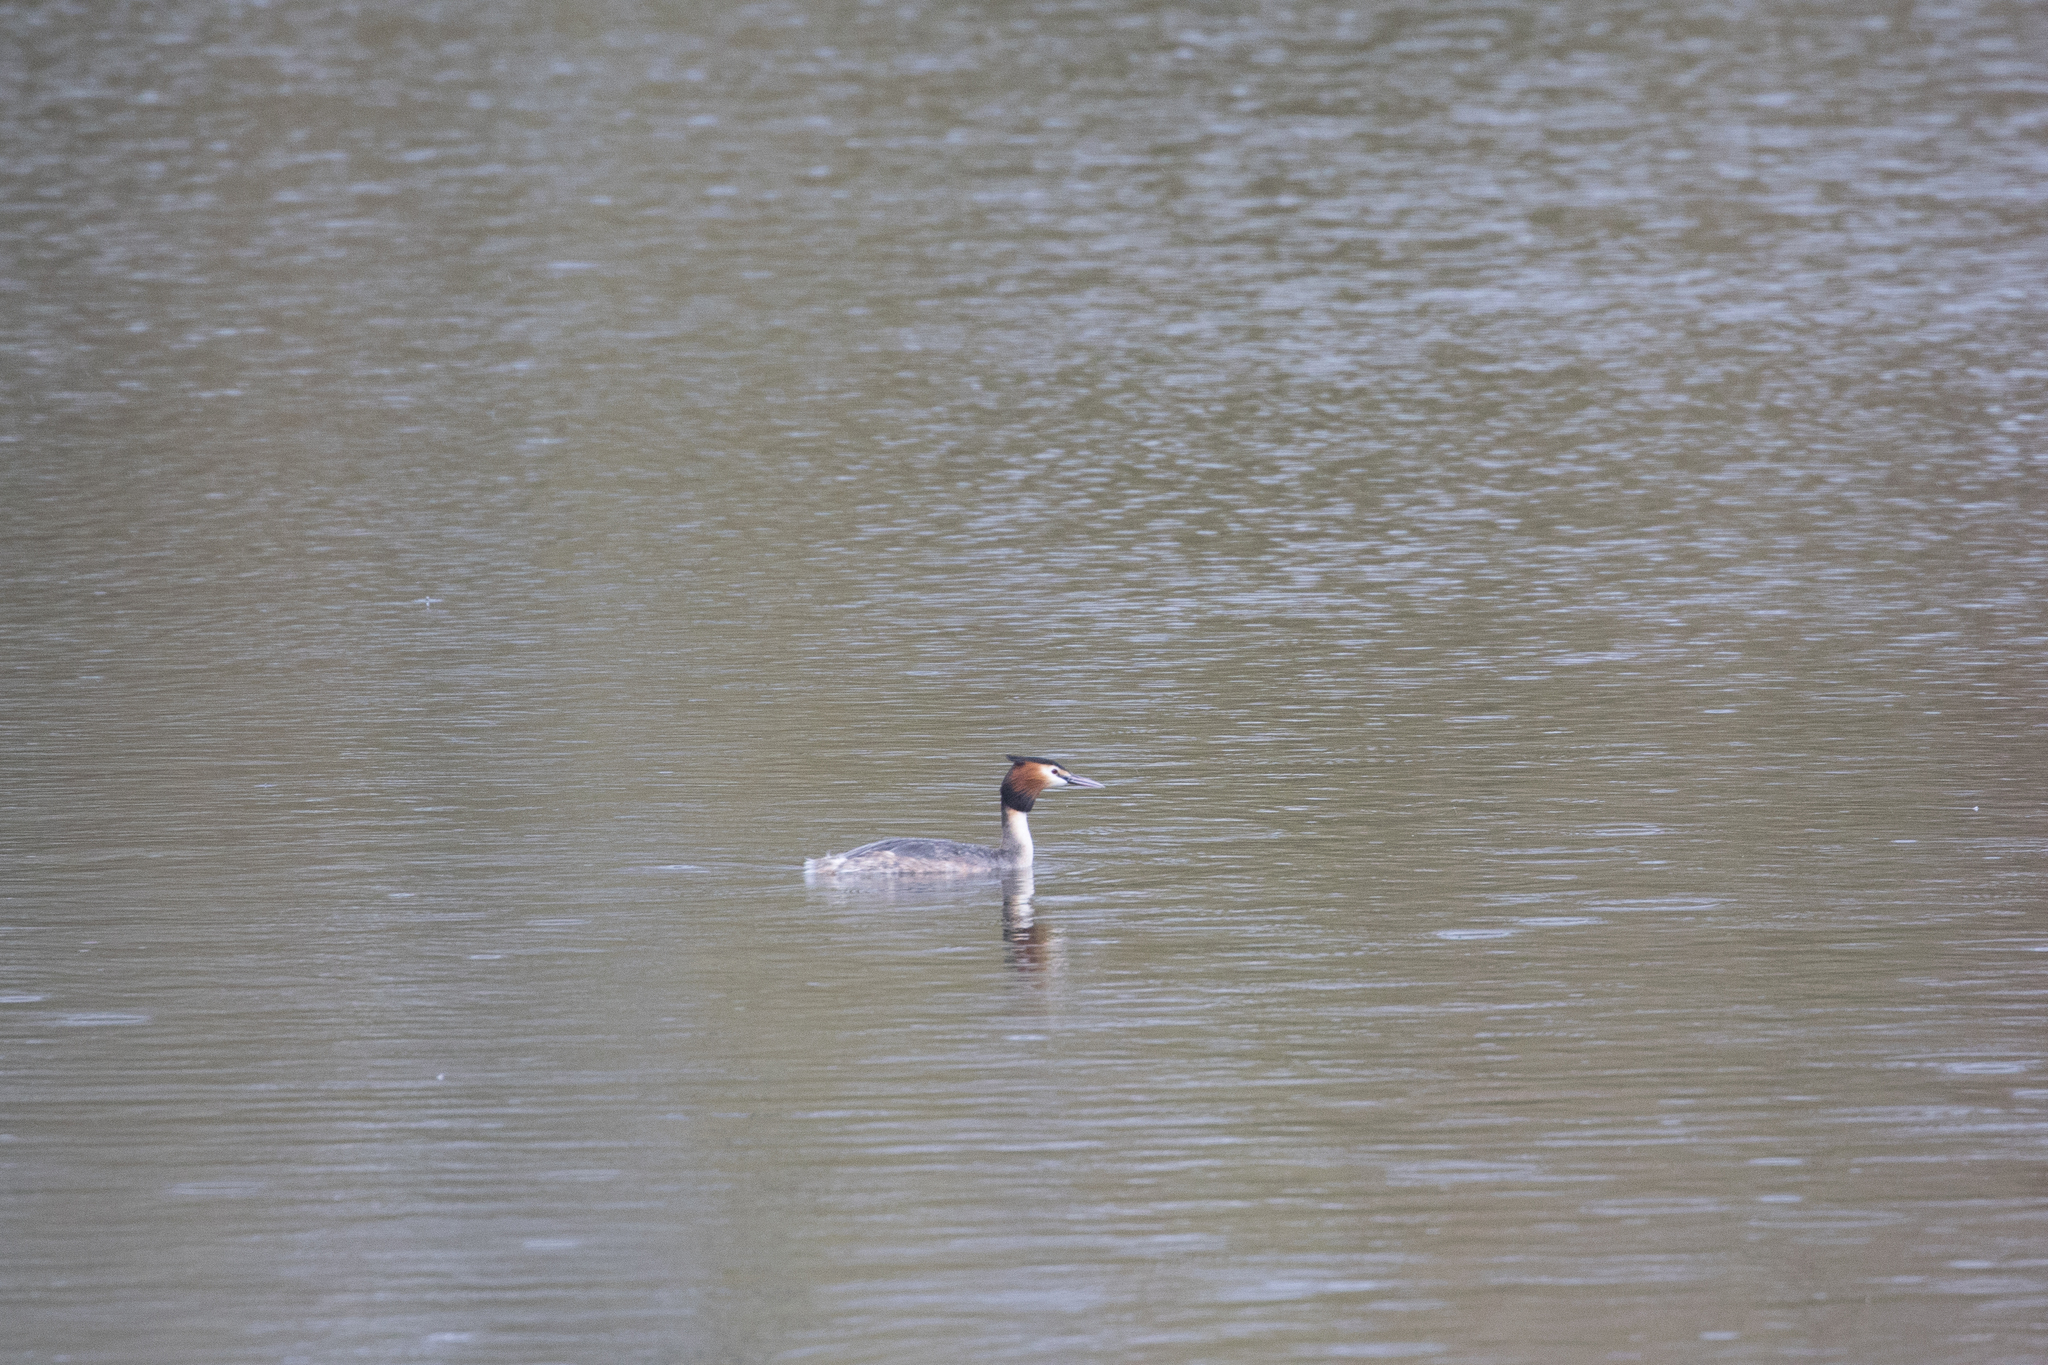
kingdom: Animalia
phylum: Chordata
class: Aves
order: Podicipediformes
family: Podicipedidae
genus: Podiceps
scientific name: Podiceps cristatus
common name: Great crested grebe
